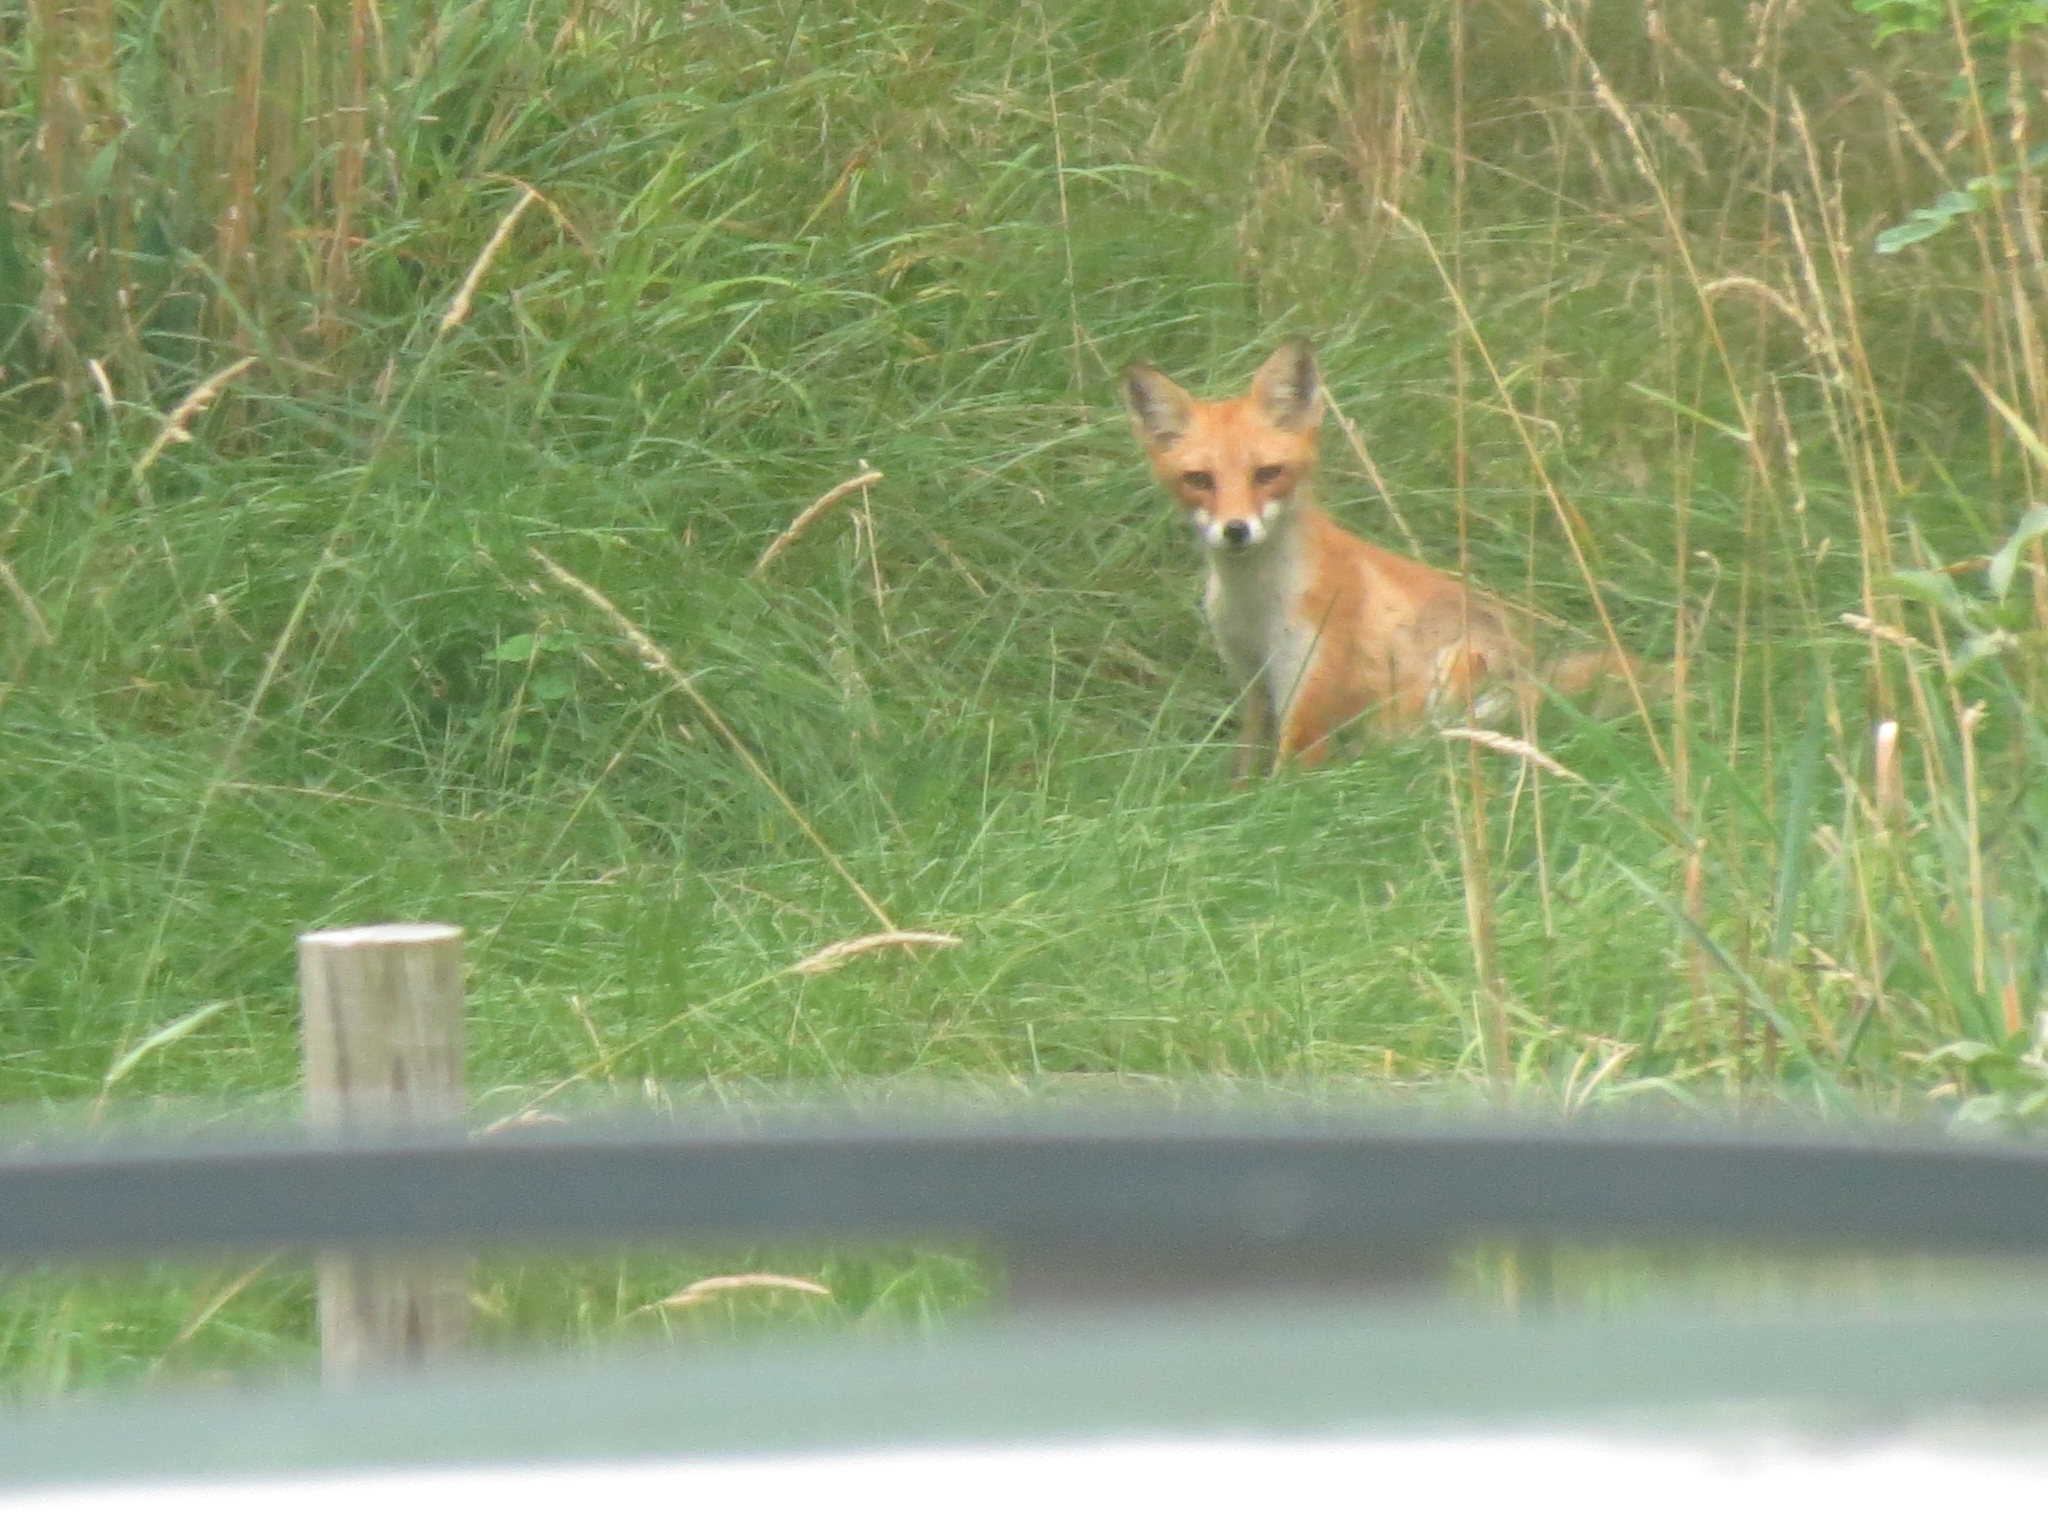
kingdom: Animalia
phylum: Chordata
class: Mammalia
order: Carnivora
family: Canidae
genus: Vulpes
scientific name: Vulpes vulpes
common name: Red fox
